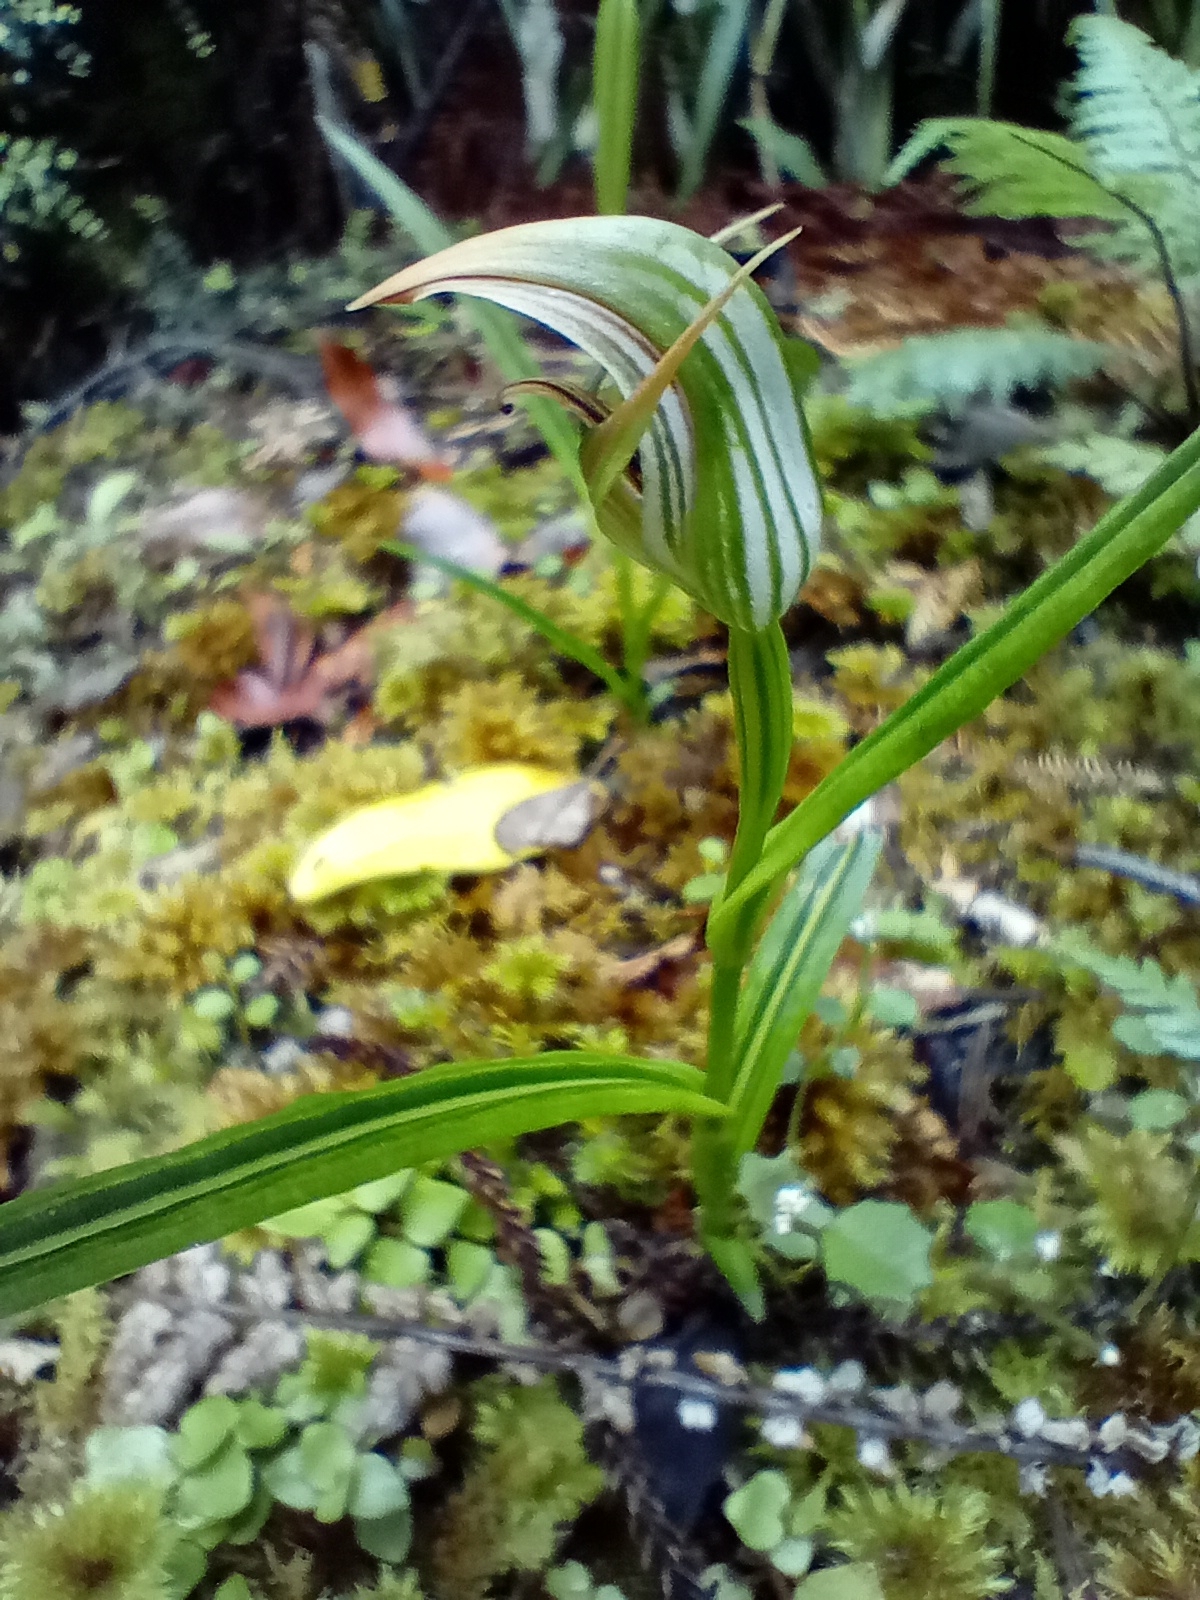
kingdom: Plantae
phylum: Tracheophyta
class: Liliopsida
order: Asparagales
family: Orchidaceae
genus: Pterostylis
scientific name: Pterostylis irsoniana
